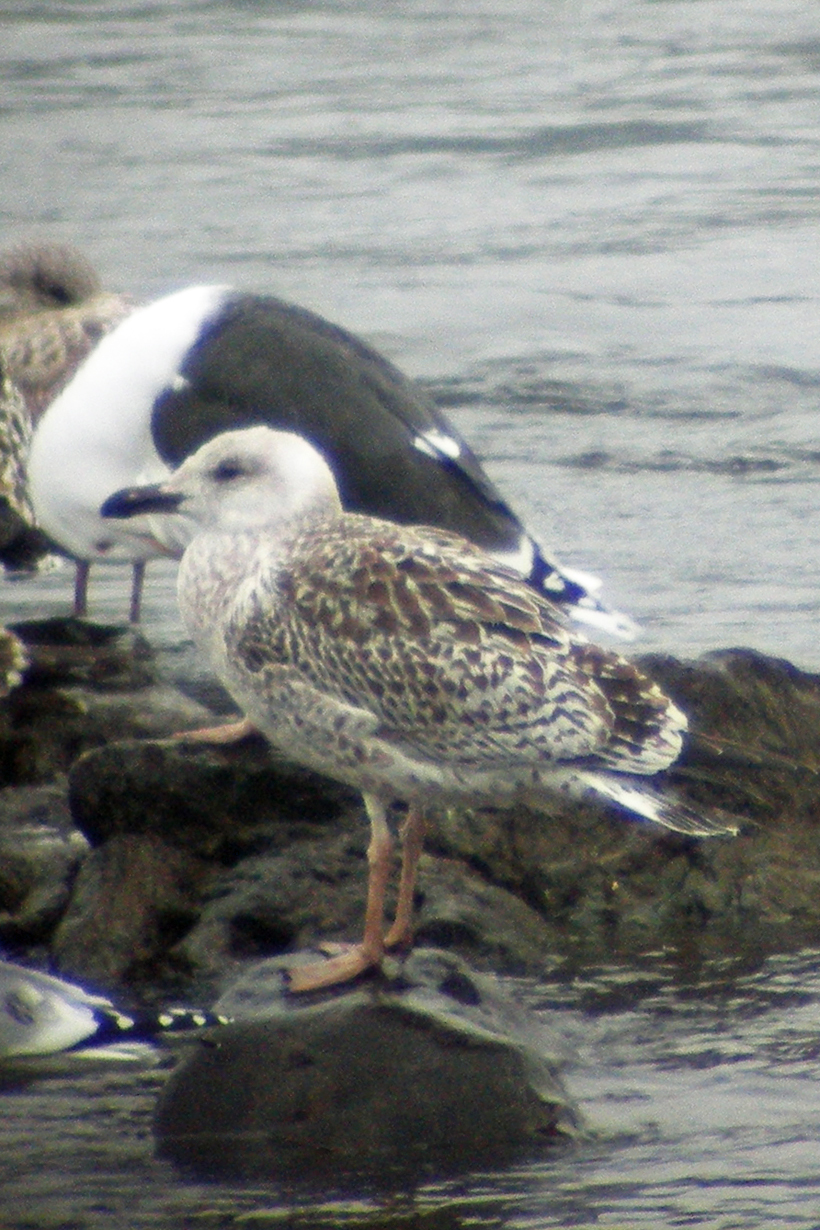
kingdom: Animalia
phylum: Chordata
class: Aves
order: Charadriiformes
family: Laridae
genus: Larus
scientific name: Larus marinus
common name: Great black-backed gull
